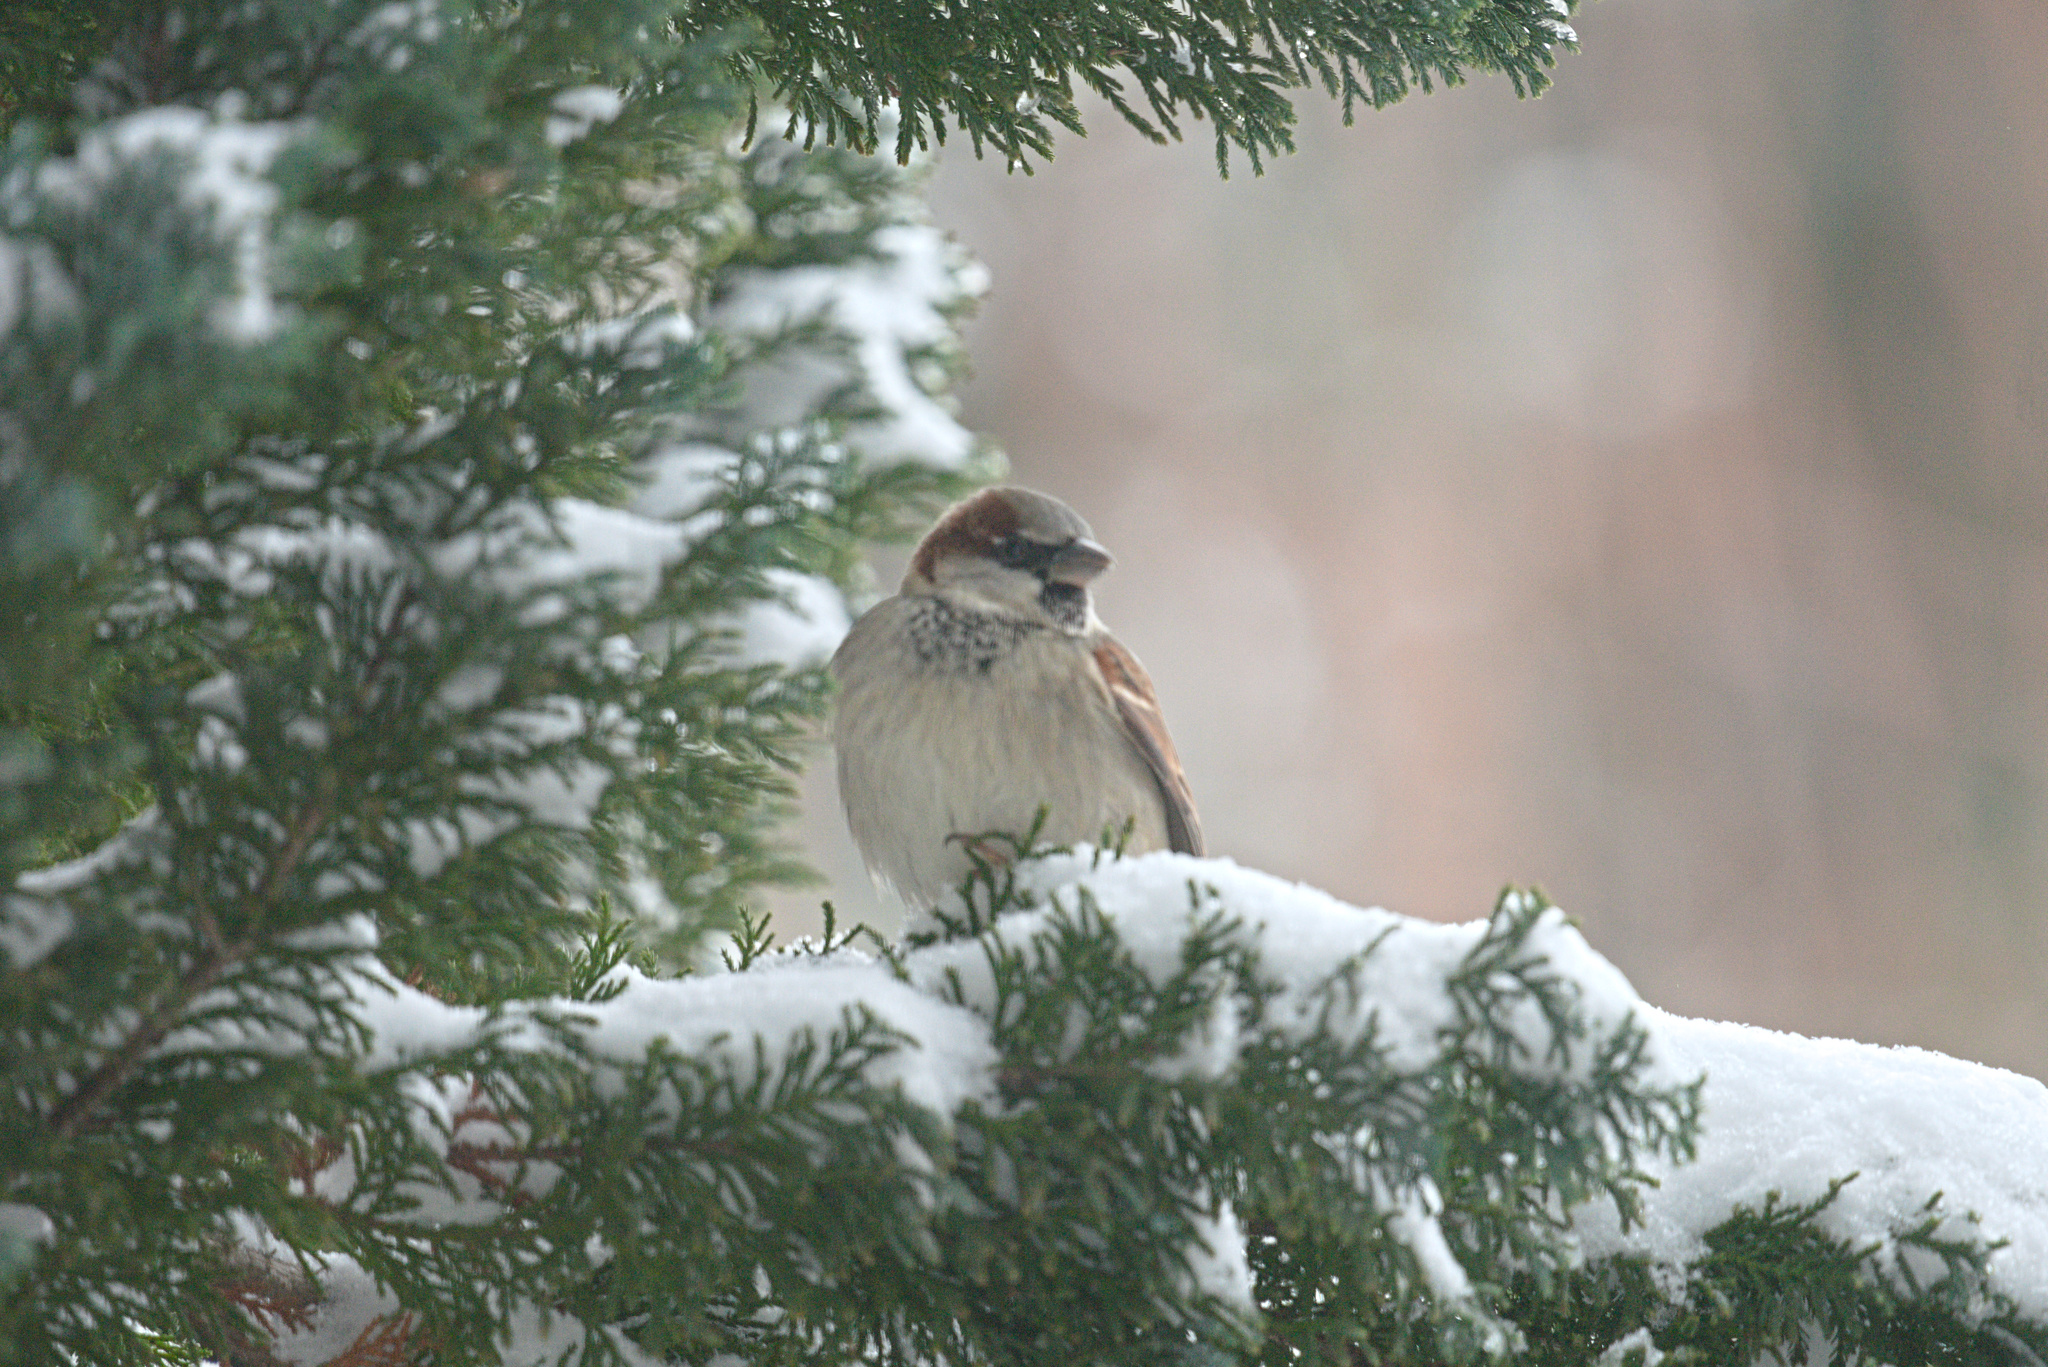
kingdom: Animalia
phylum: Chordata
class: Aves
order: Passeriformes
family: Passeridae
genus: Passer
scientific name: Passer domesticus
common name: House sparrow
